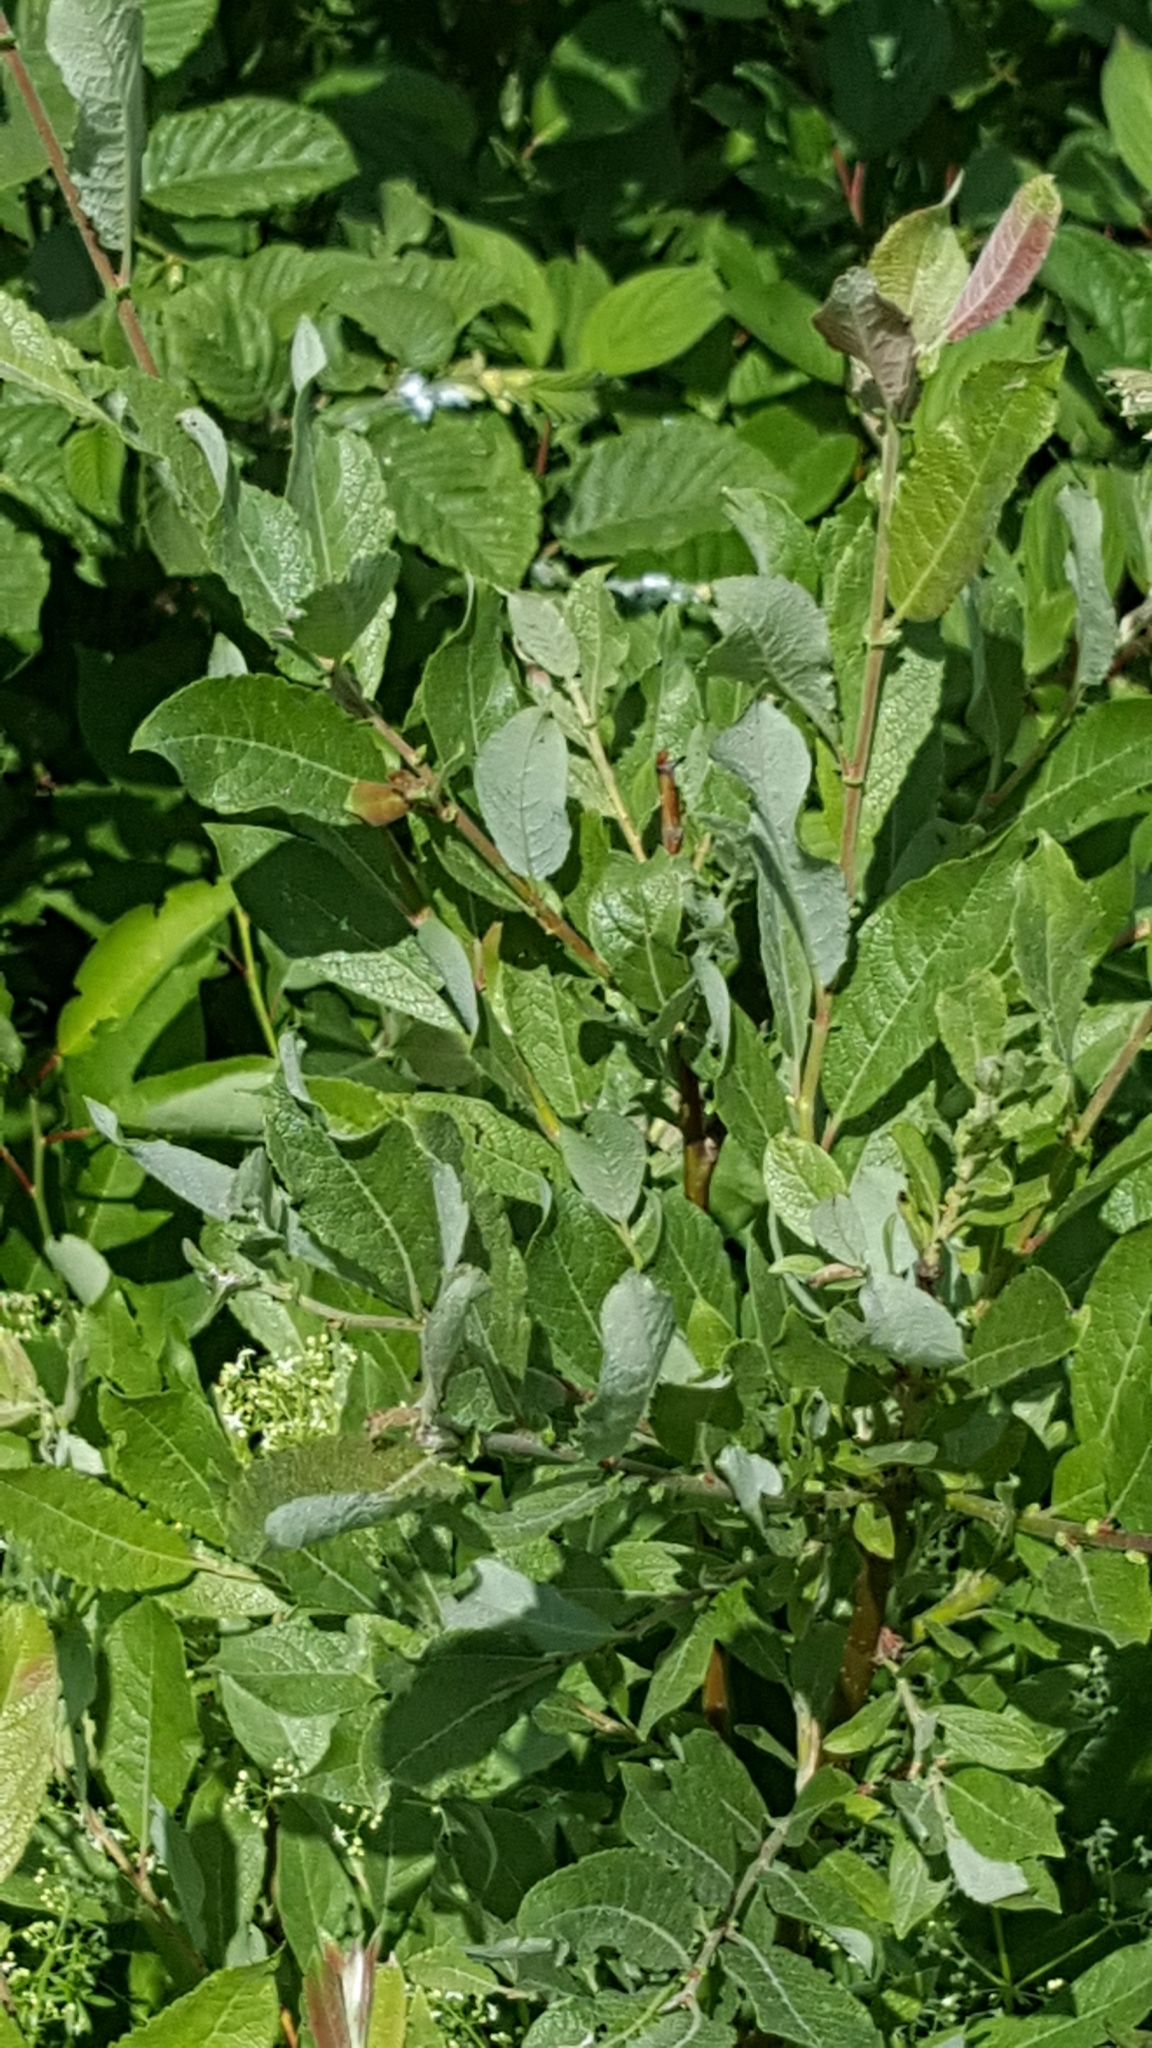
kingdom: Plantae
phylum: Tracheophyta
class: Magnoliopsida
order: Malpighiales
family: Salicaceae
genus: Salix
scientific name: Salix bebbiana
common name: Bebb's willow
